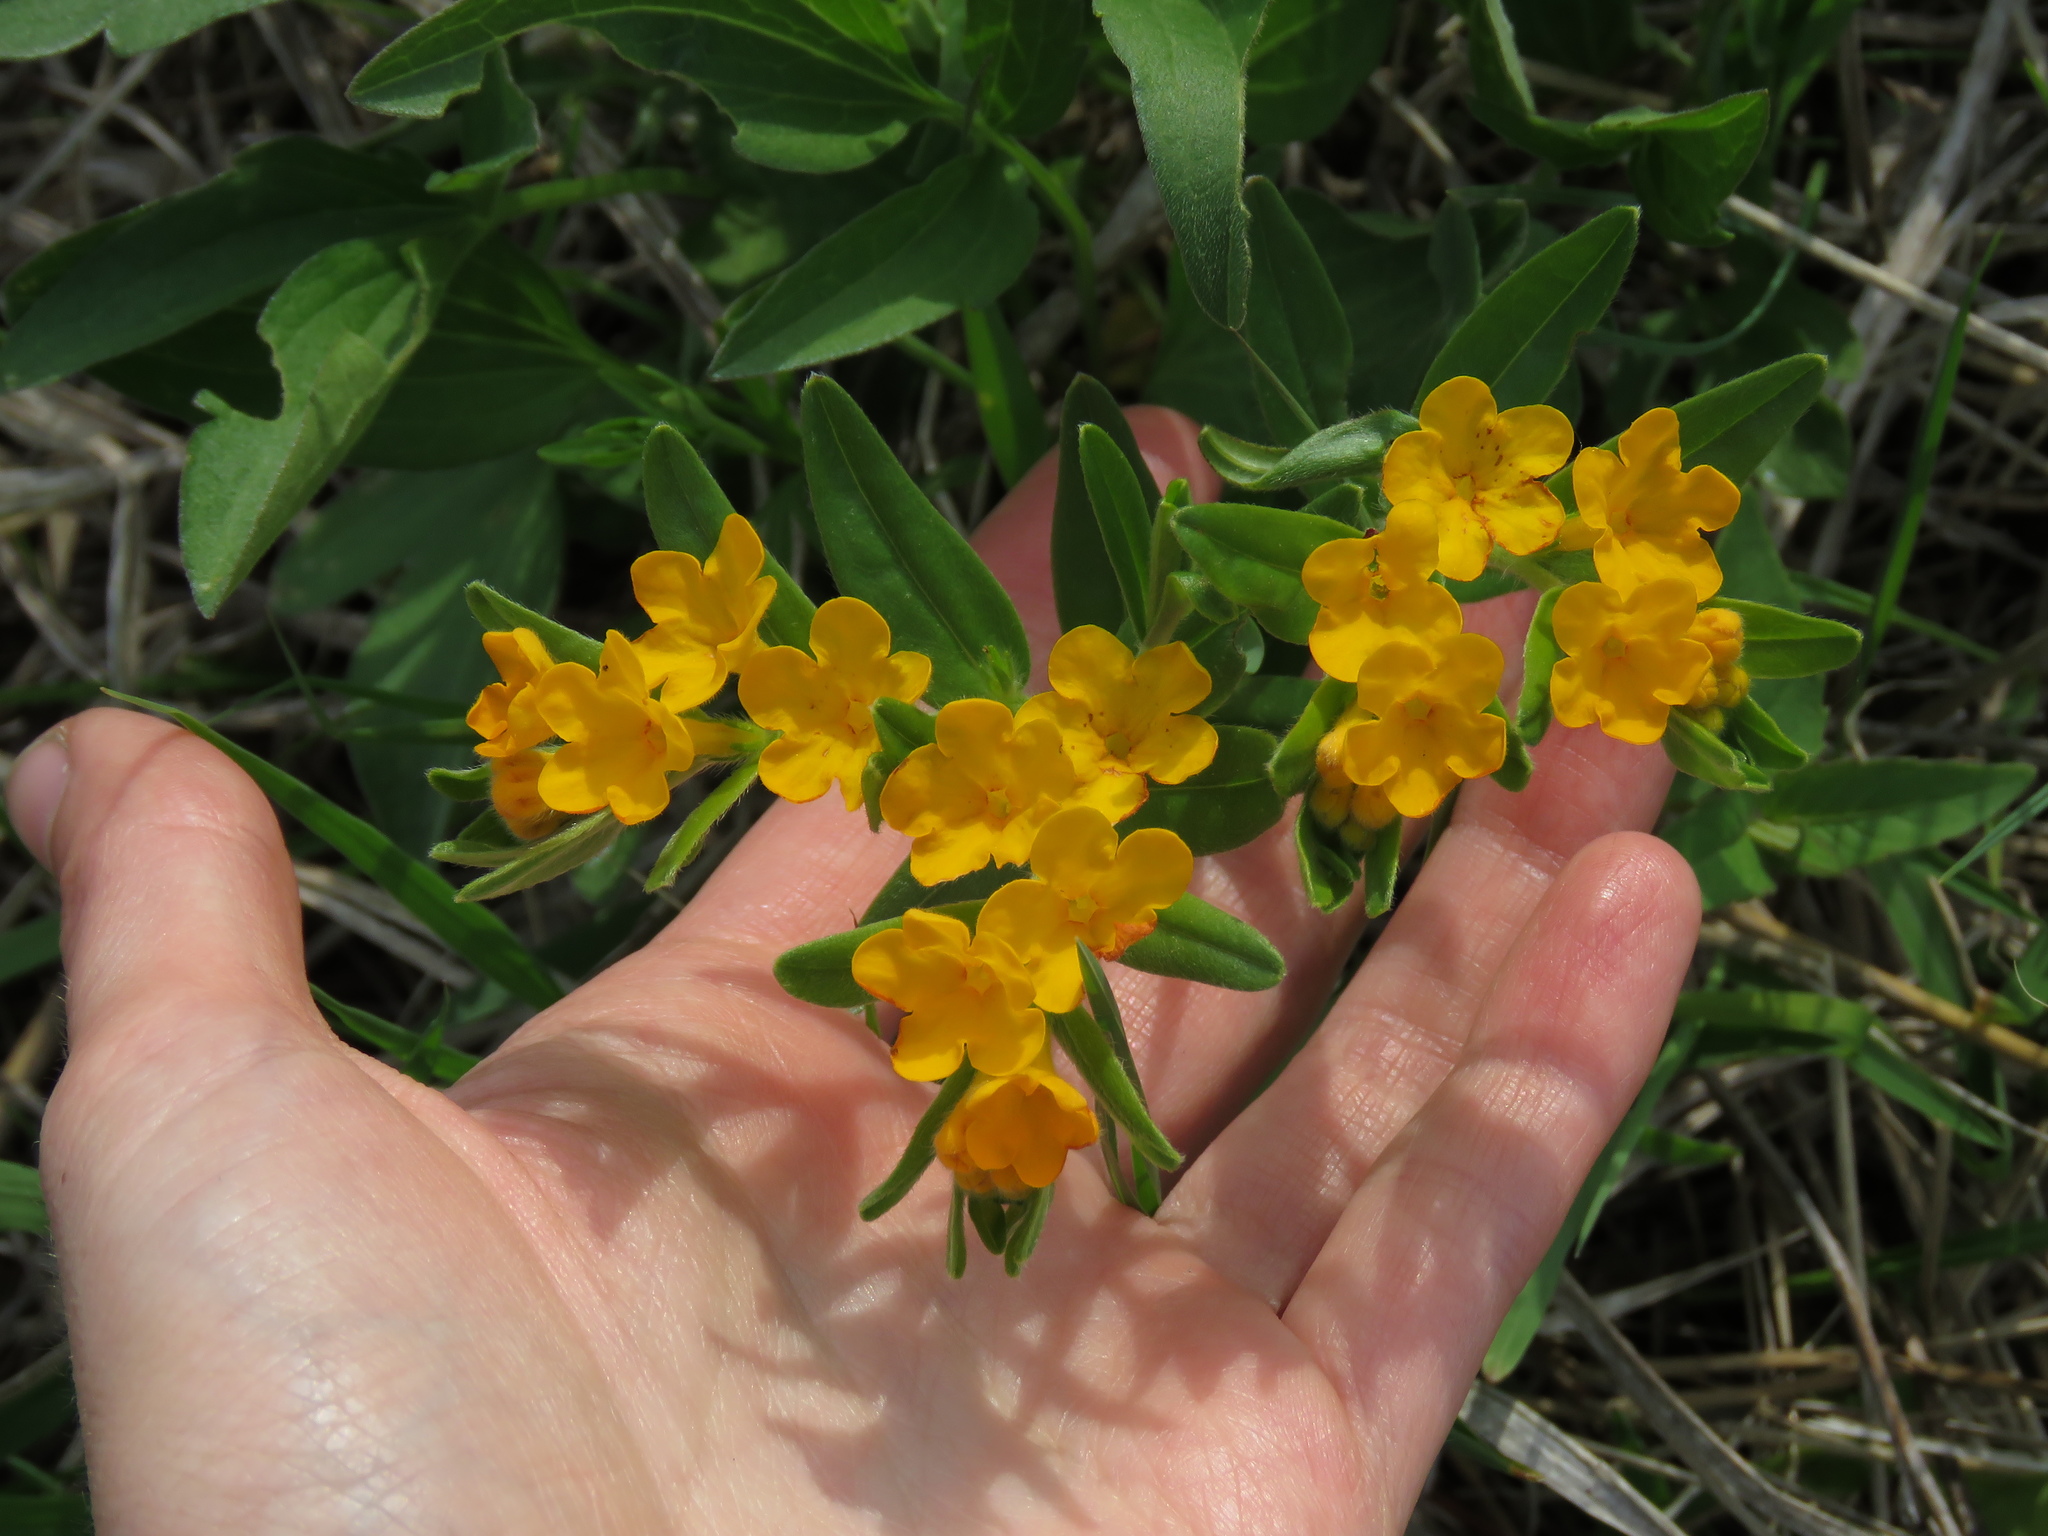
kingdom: Plantae
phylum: Tracheophyta
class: Magnoliopsida
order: Boraginales
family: Boraginaceae
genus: Lithospermum
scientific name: Lithospermum canescens
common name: Hoary puccoon
